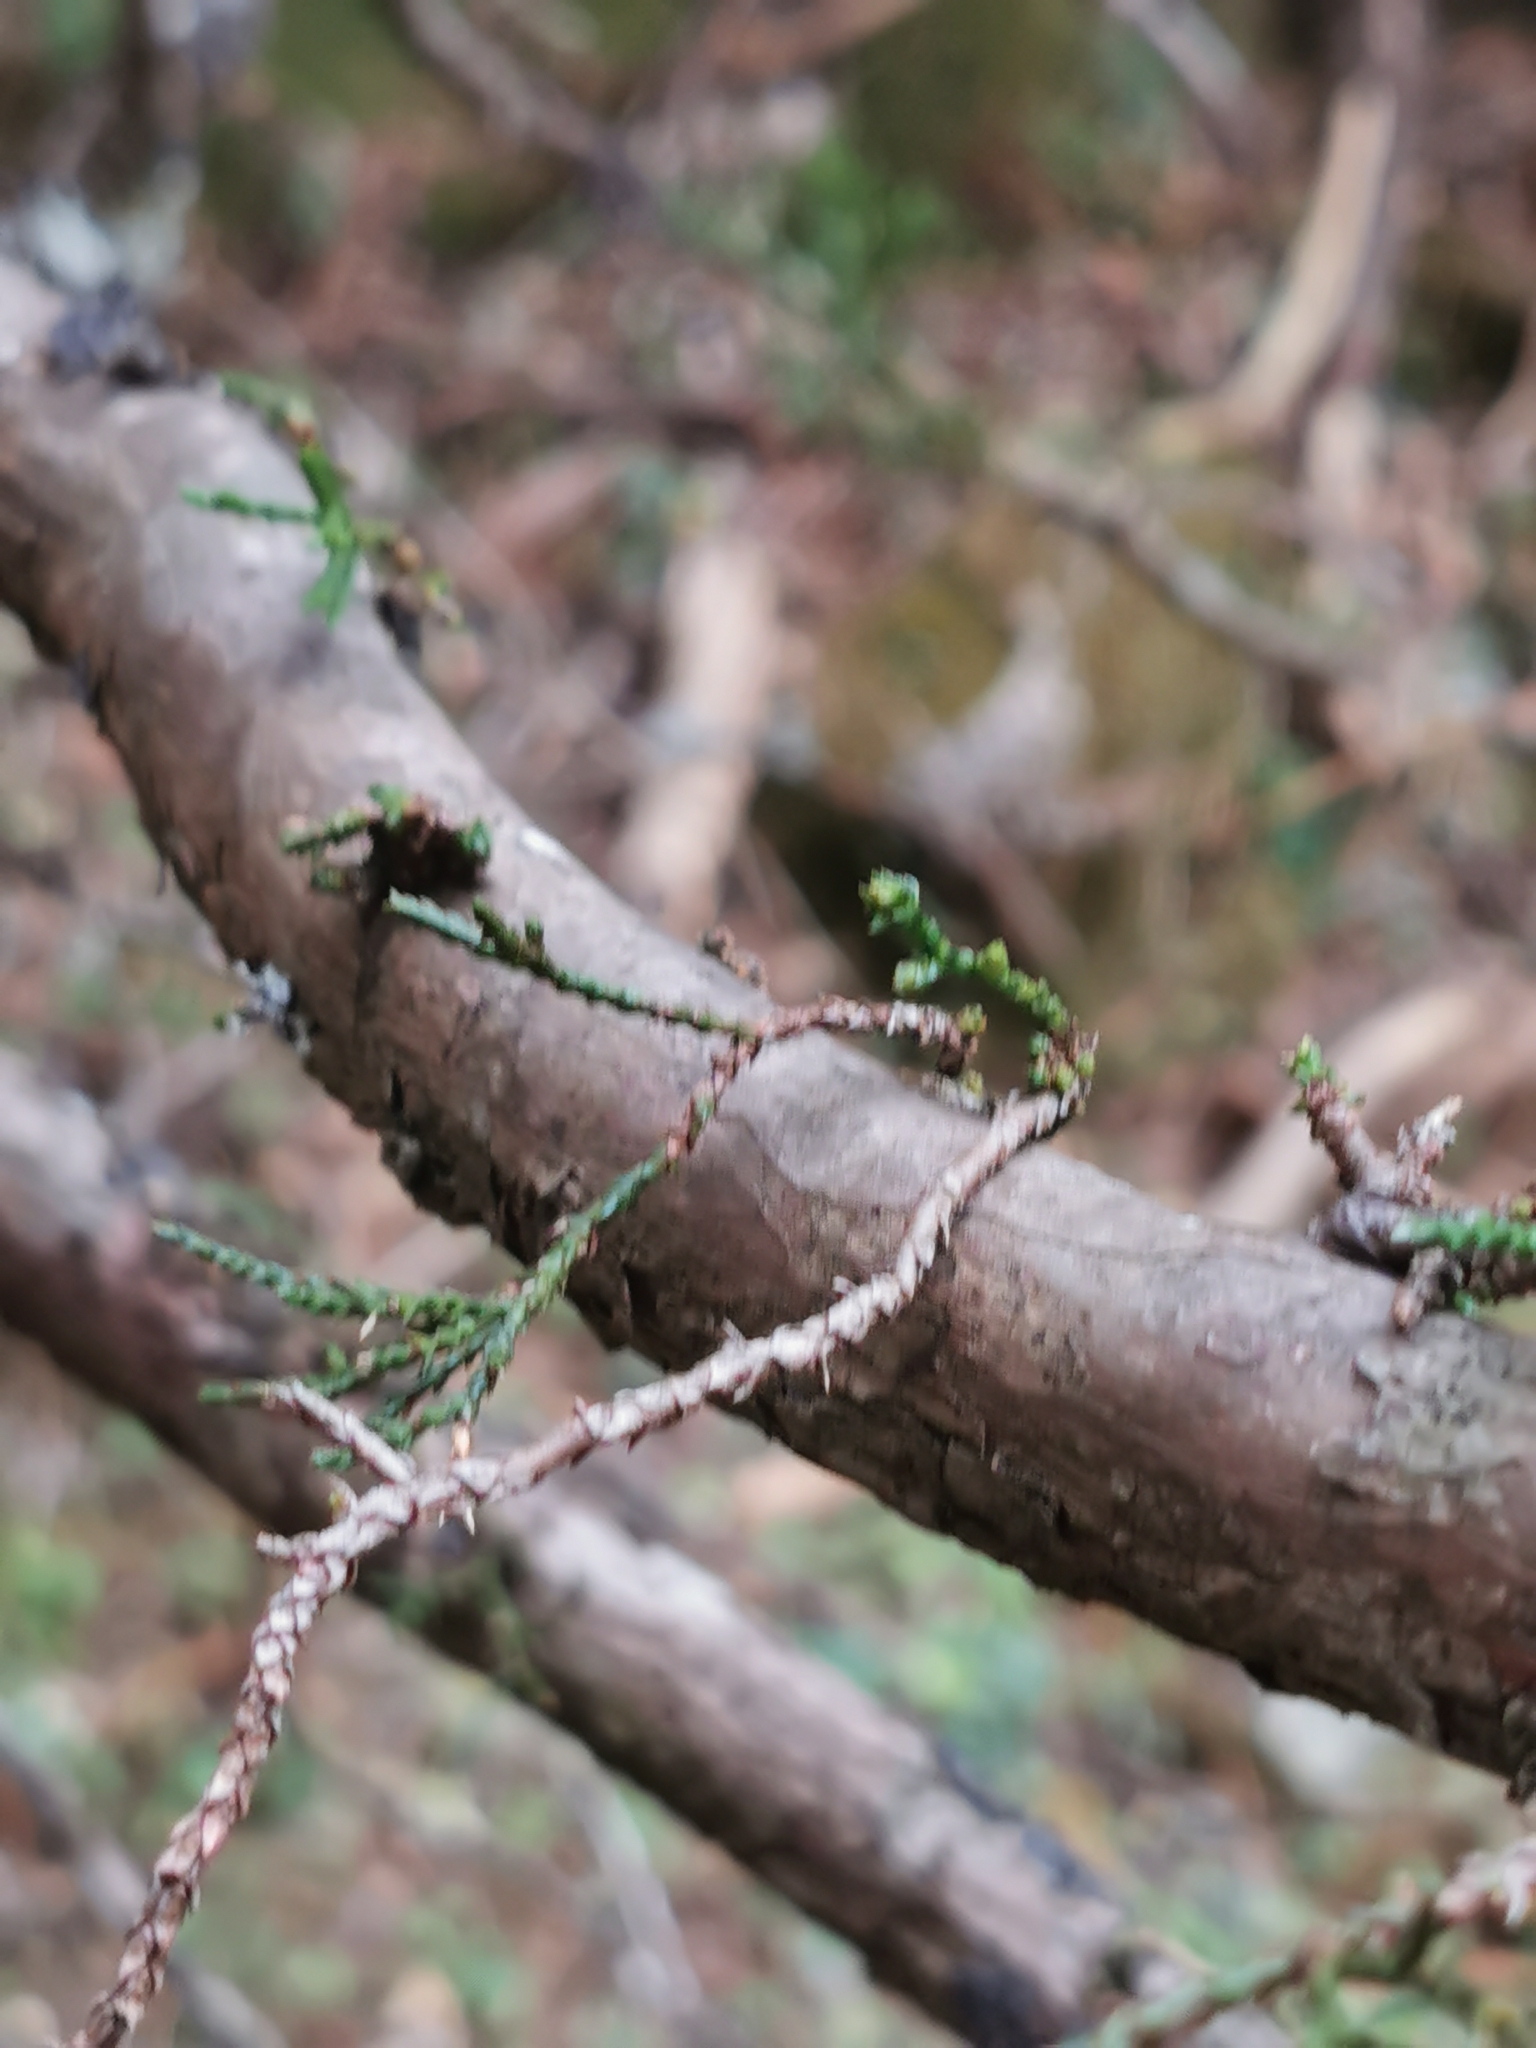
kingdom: Plantae
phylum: Tracheophyta
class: Pinopsida
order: Pinales
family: Cupressaceae
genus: Juniperus
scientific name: Juniperus deppeana
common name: Alligator juniper
